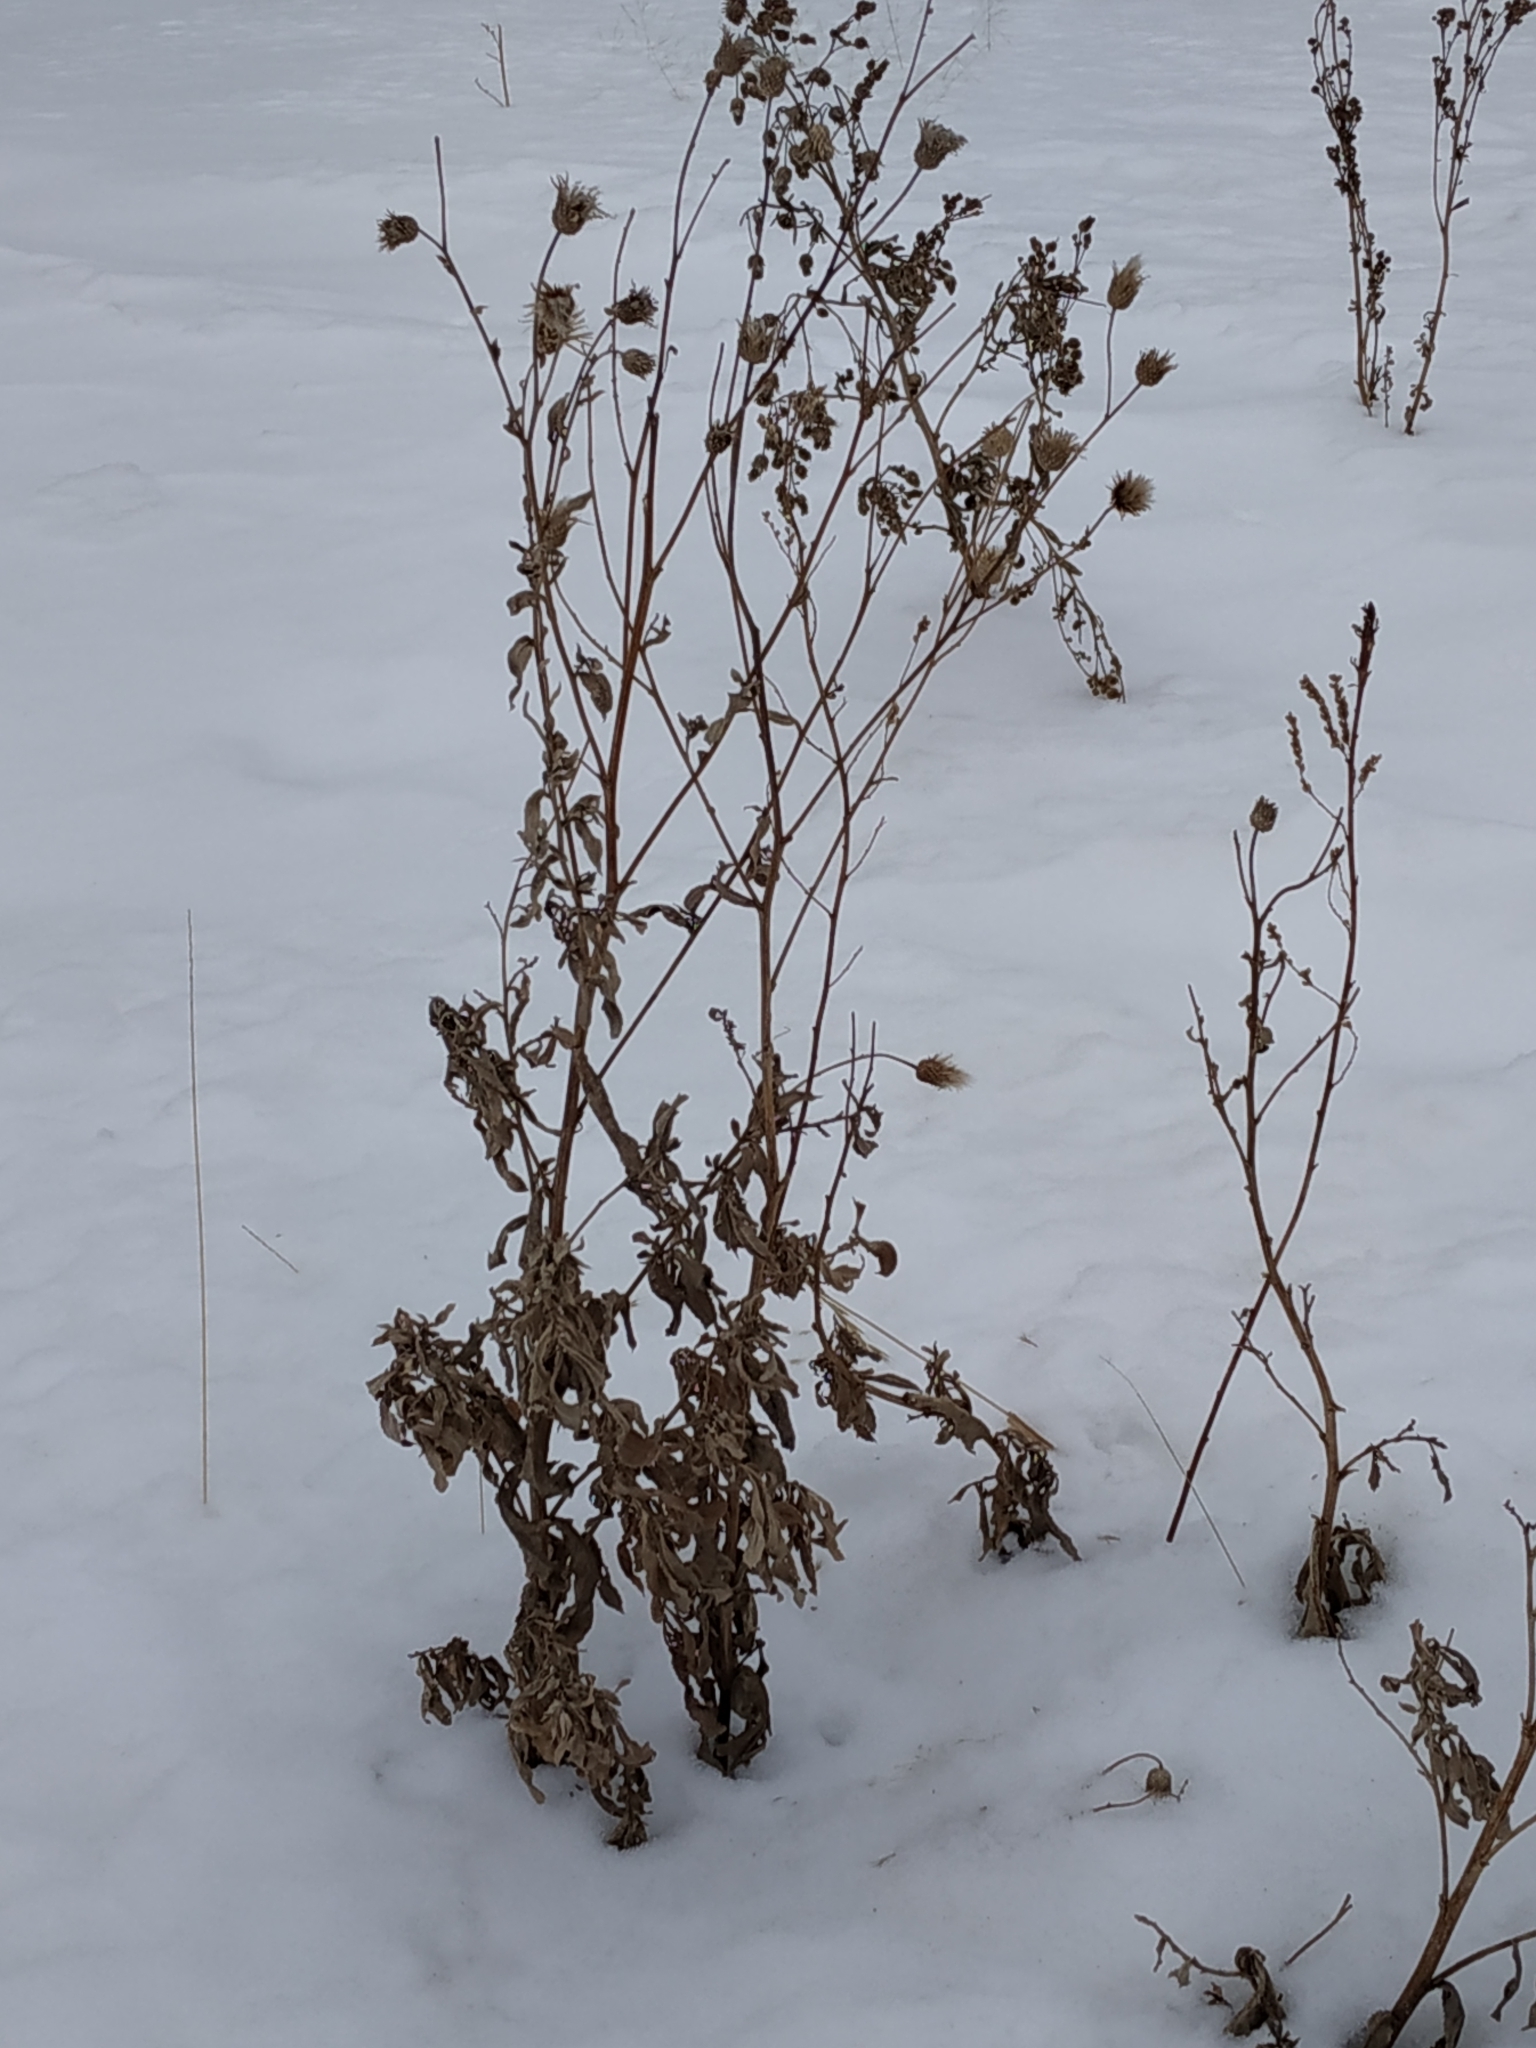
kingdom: Plantae
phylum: Tracheophyta
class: Magnoliopsida
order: Asterales
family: Asteraceae
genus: Cirsium
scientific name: Cirsium arvense
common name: Creeping thistle
